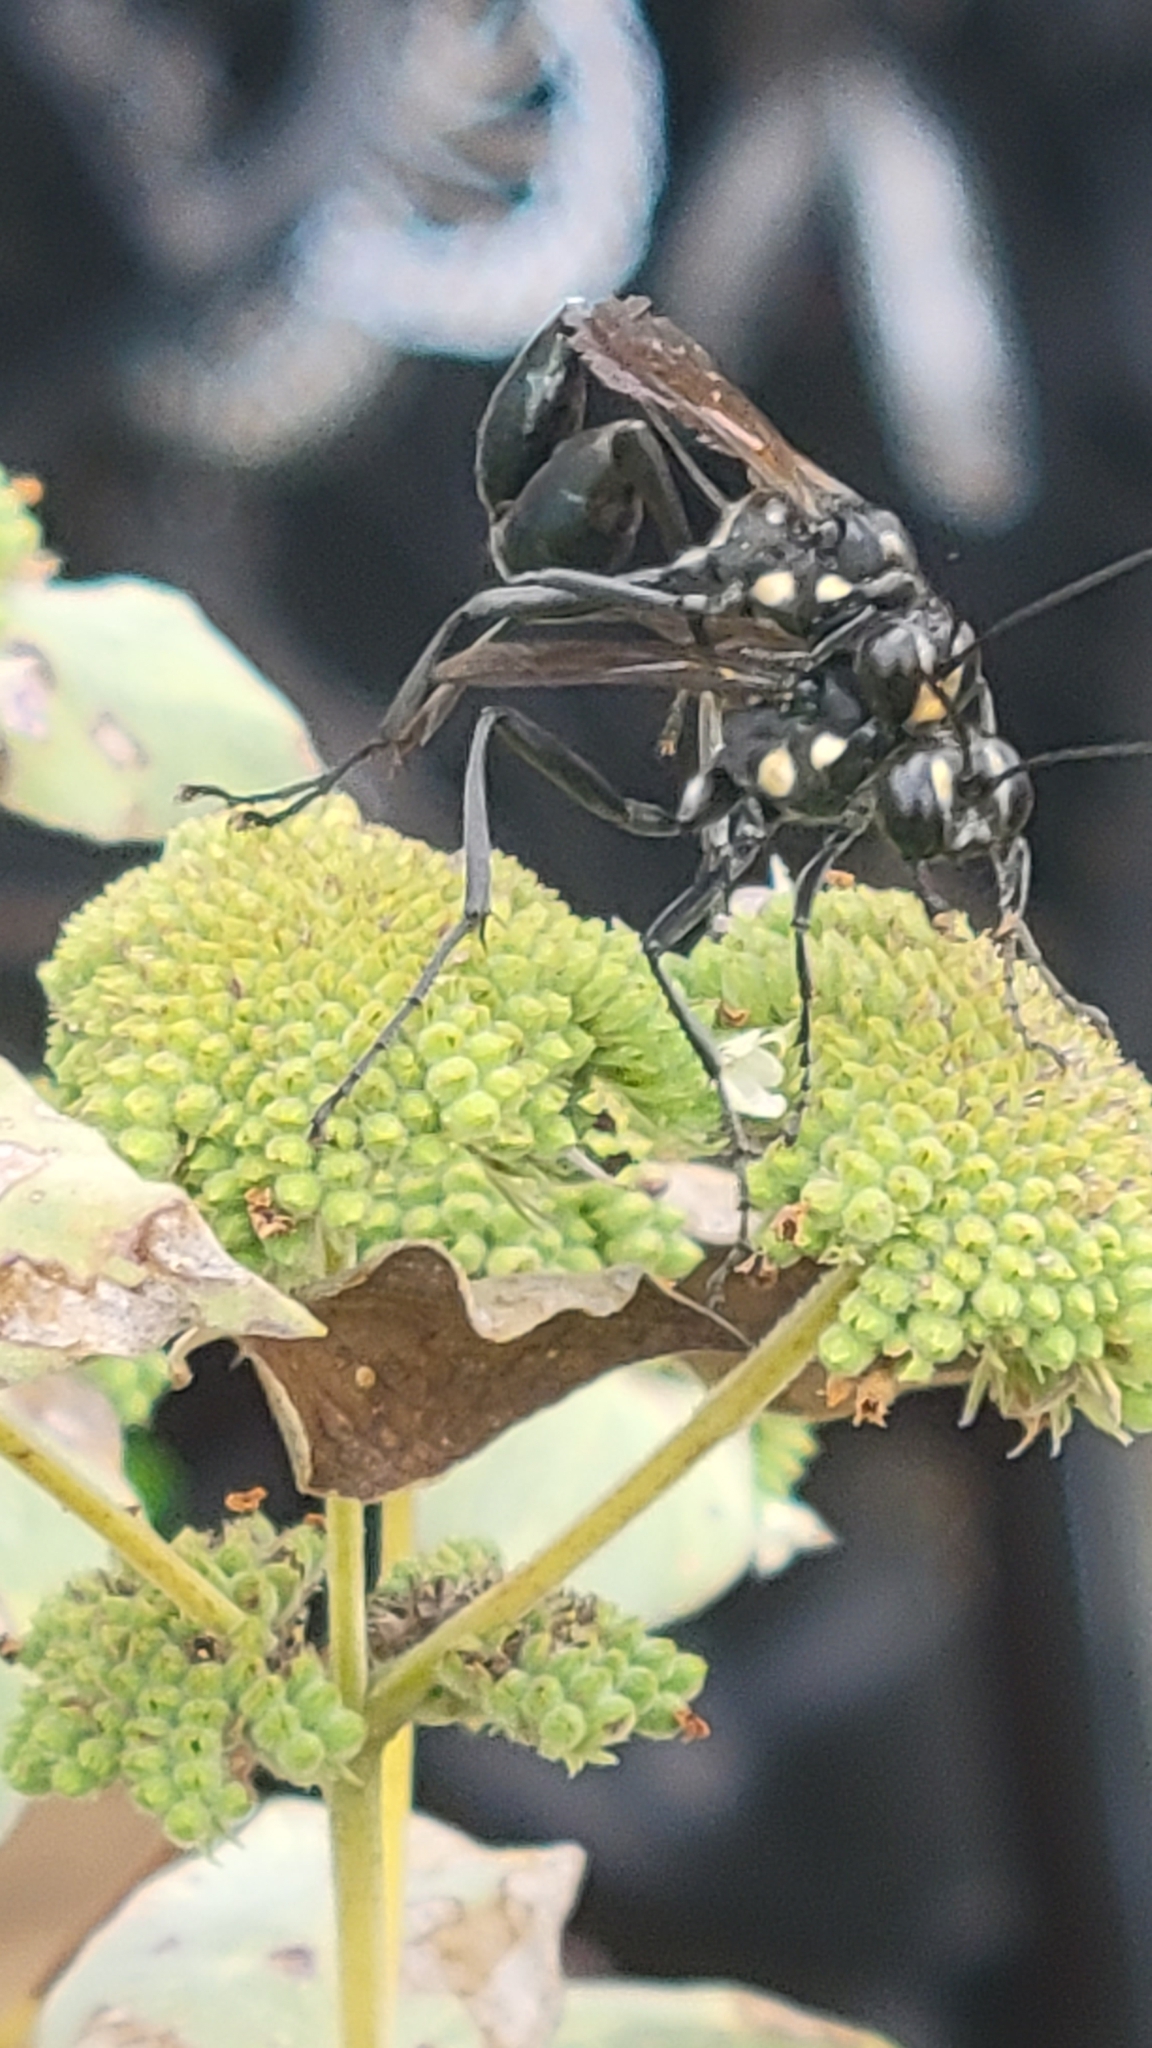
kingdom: Animalia
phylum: Arthropoda
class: Insecta
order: Hymenoptera
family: Sphecidae
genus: Eremnophila
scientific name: Eremnophila aureonotata
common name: Gold-marked thread-waisted wasp
